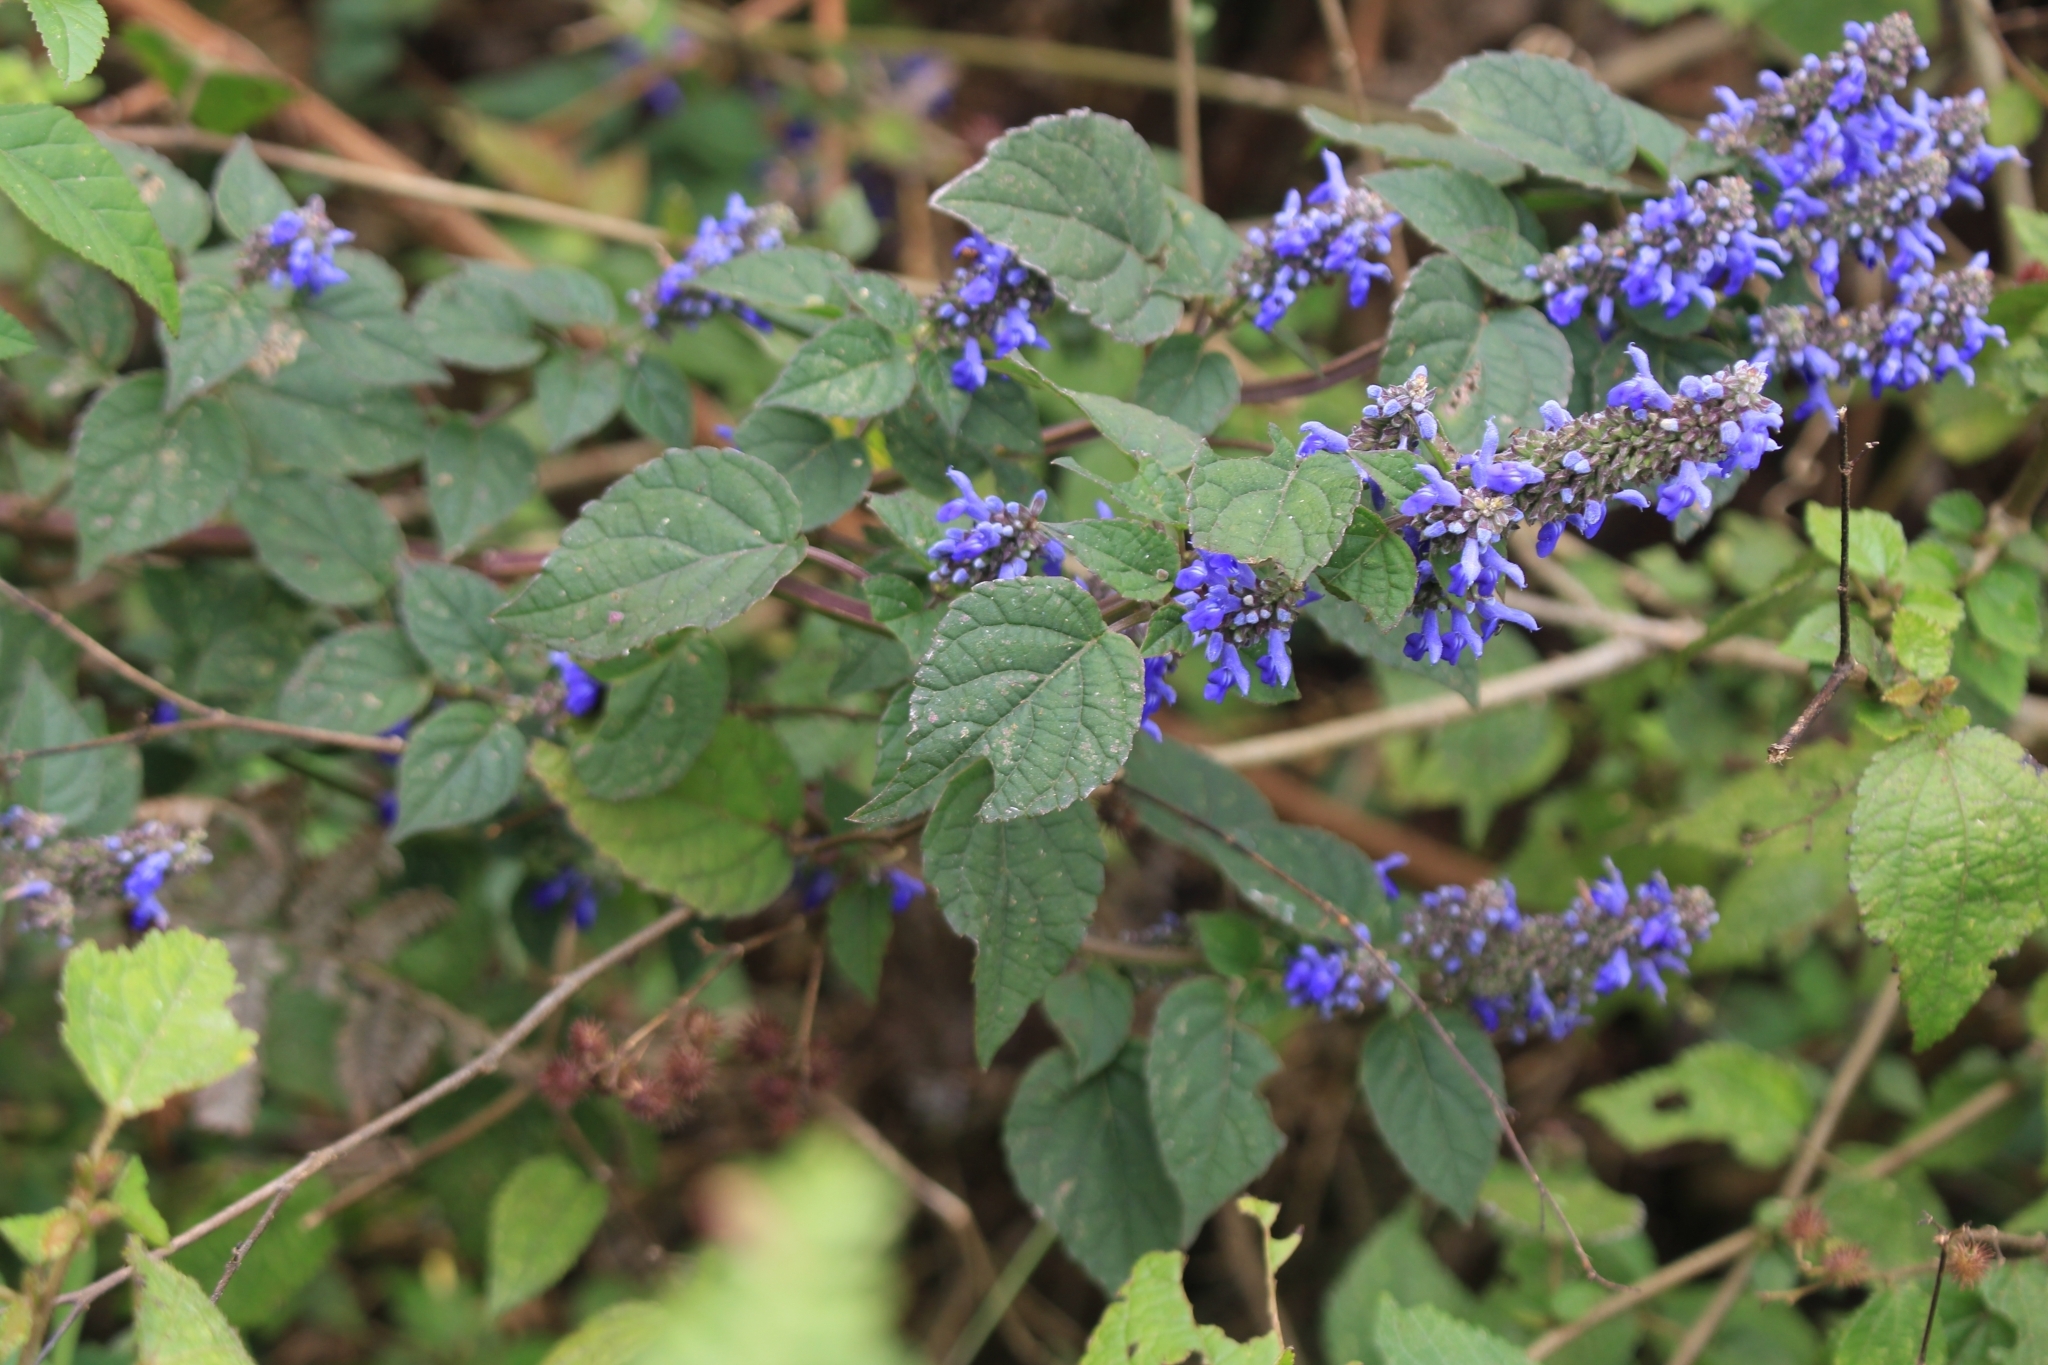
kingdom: Plantae
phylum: Tracheophyta
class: Magnoliopsida
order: Lamiales
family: Lamiaceae
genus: Salvia
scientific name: Salvia polystachia
